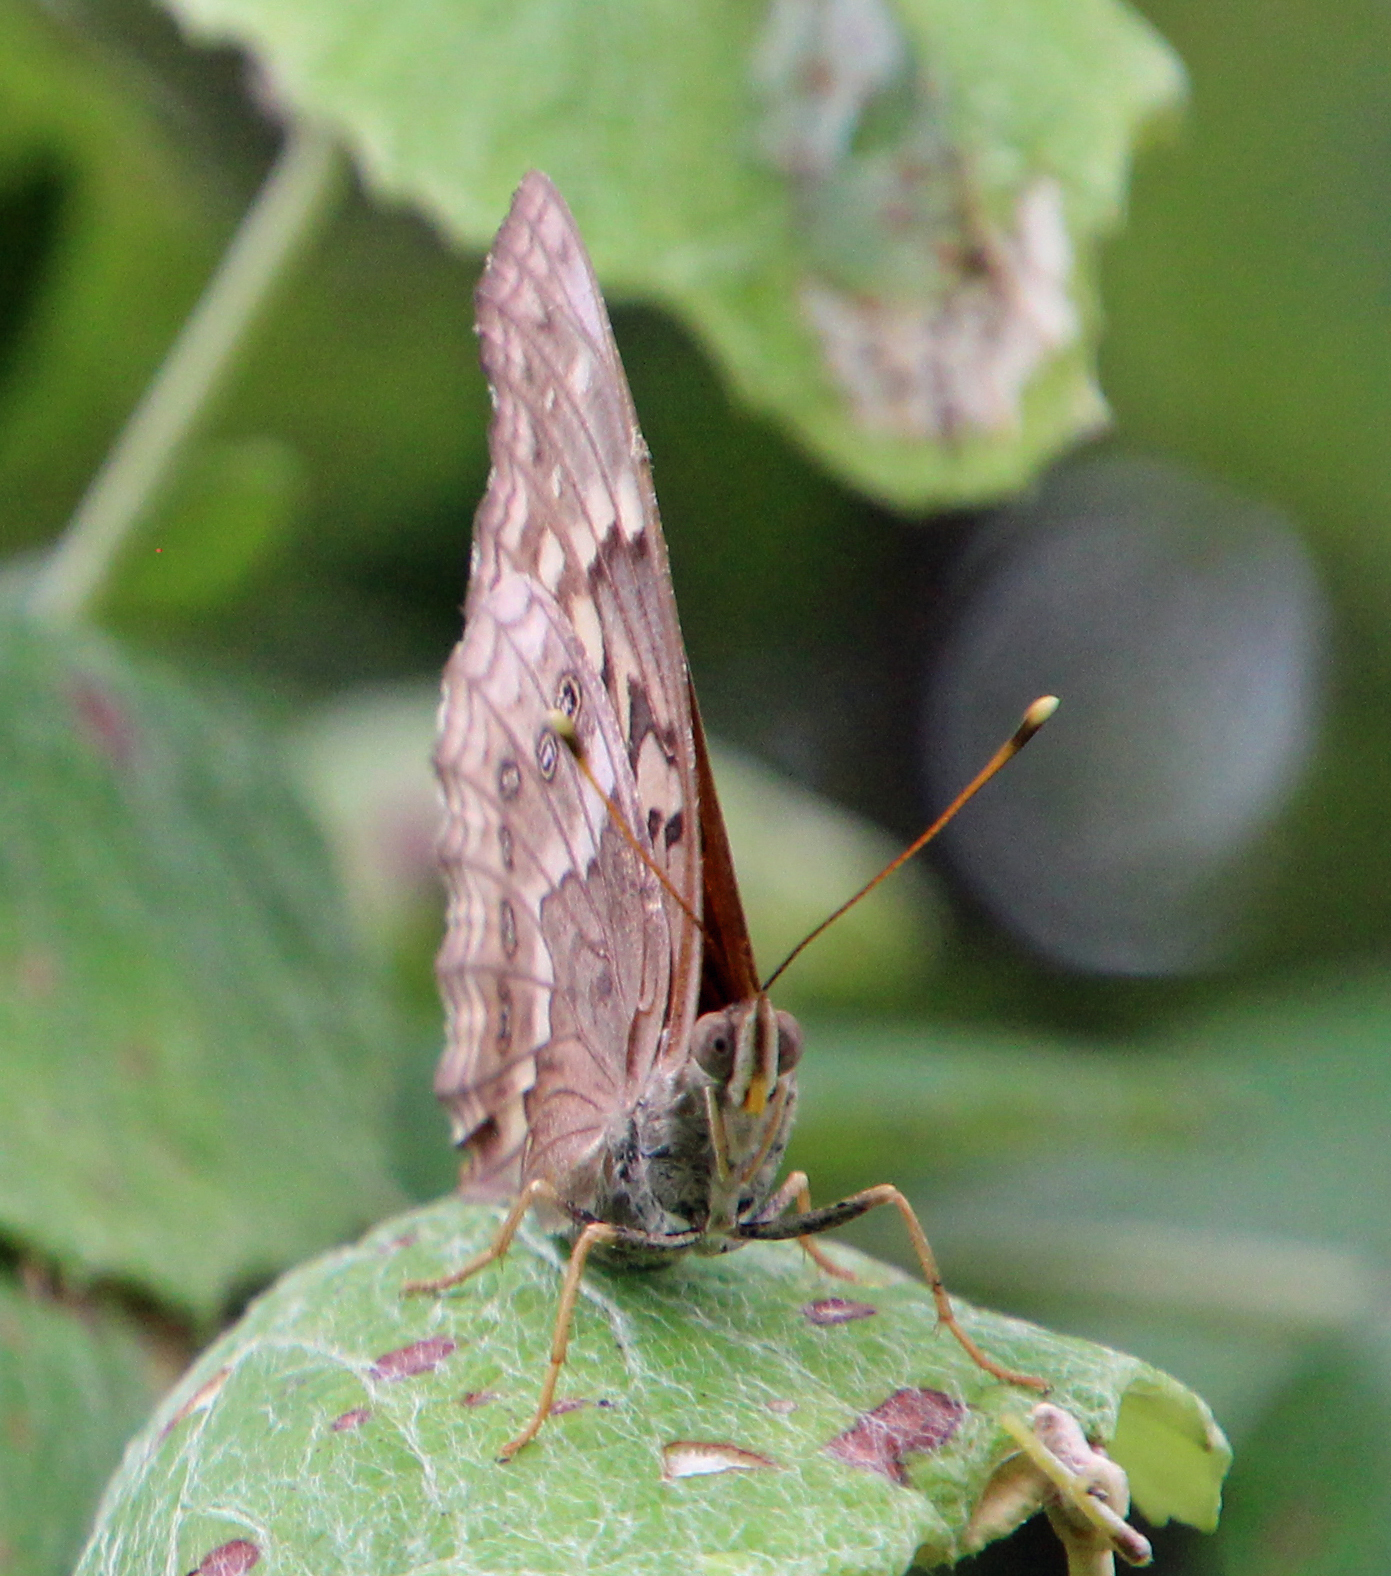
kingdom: Animalia
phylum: Arthropoda
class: Insecta
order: Lepidoptera
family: Nymphalidae
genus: Asterocampa
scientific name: Asterocampa clyton
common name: Tawny emperor
